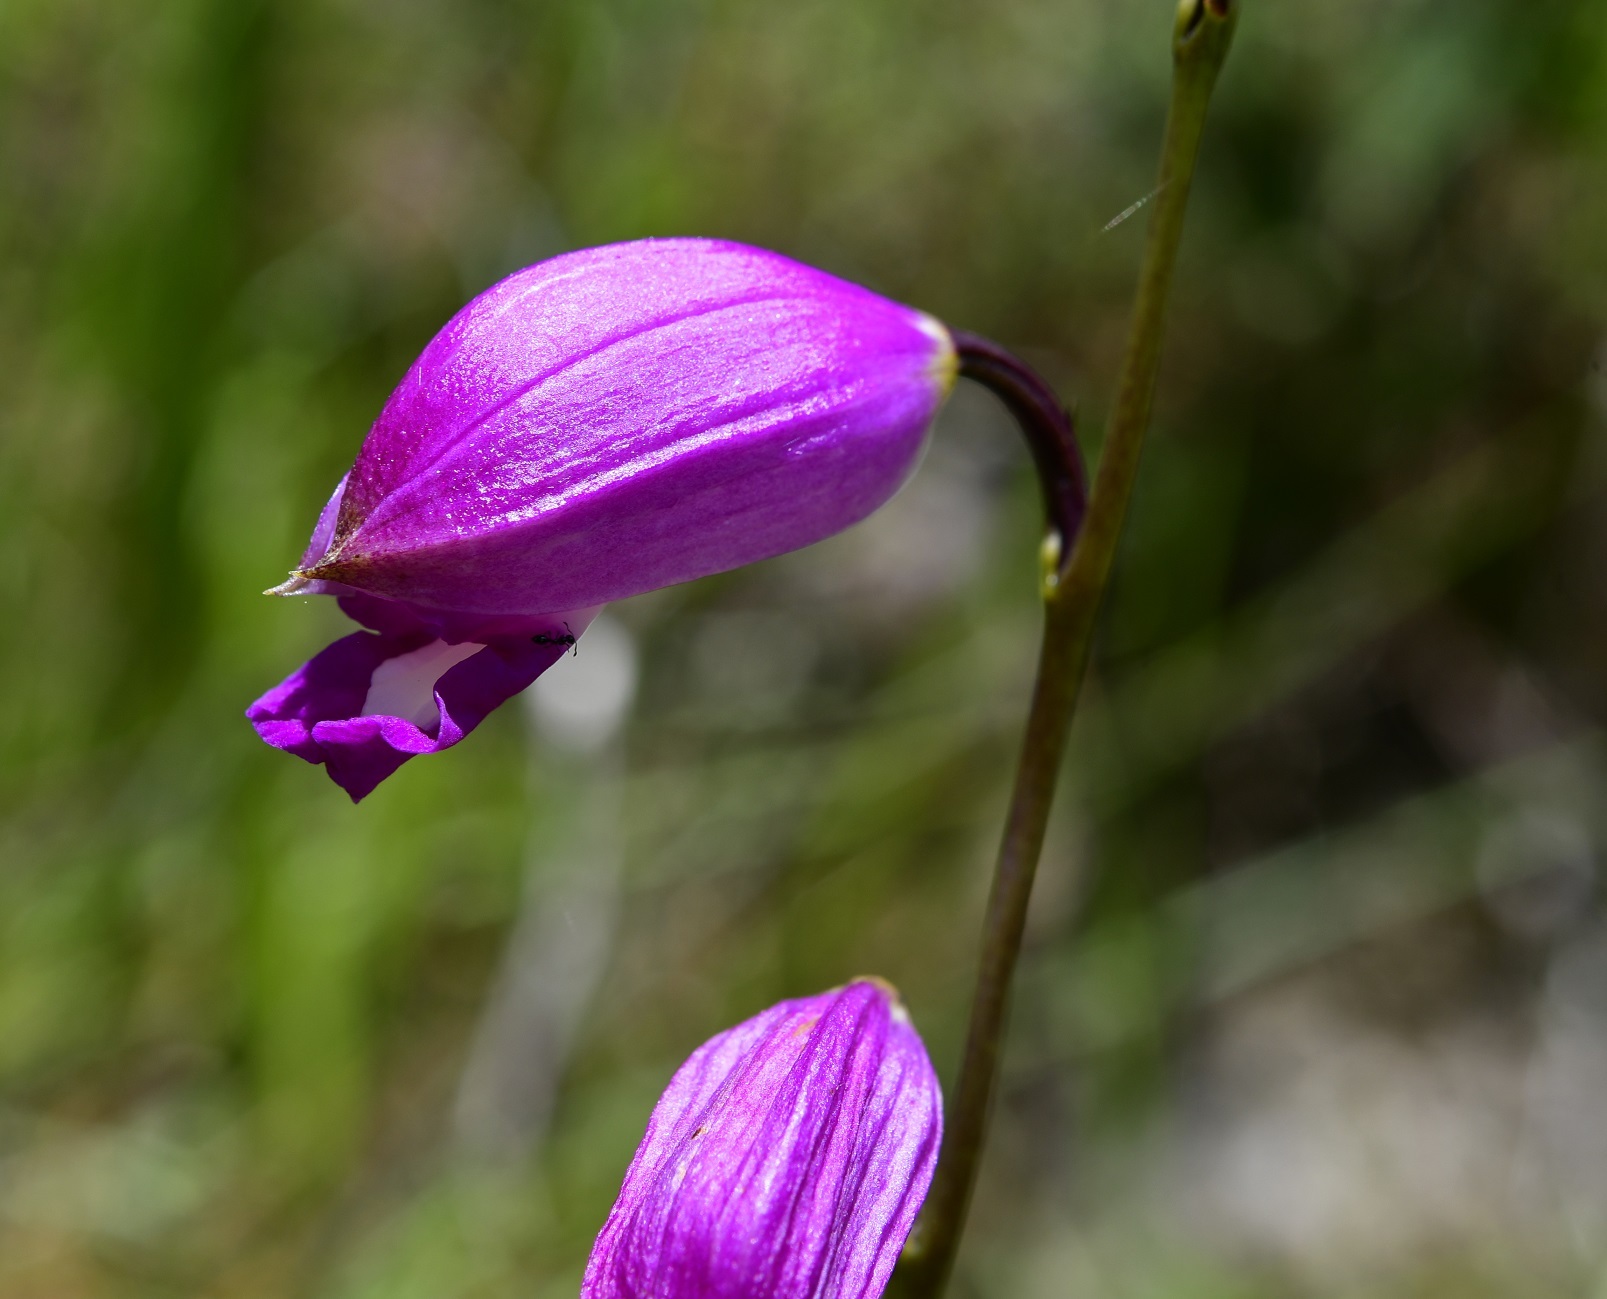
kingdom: Plantae
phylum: Tracheophyta
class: Liliopsida
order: Asparagales
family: Orchidaceae
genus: Bletia
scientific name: Bletia campanulata
